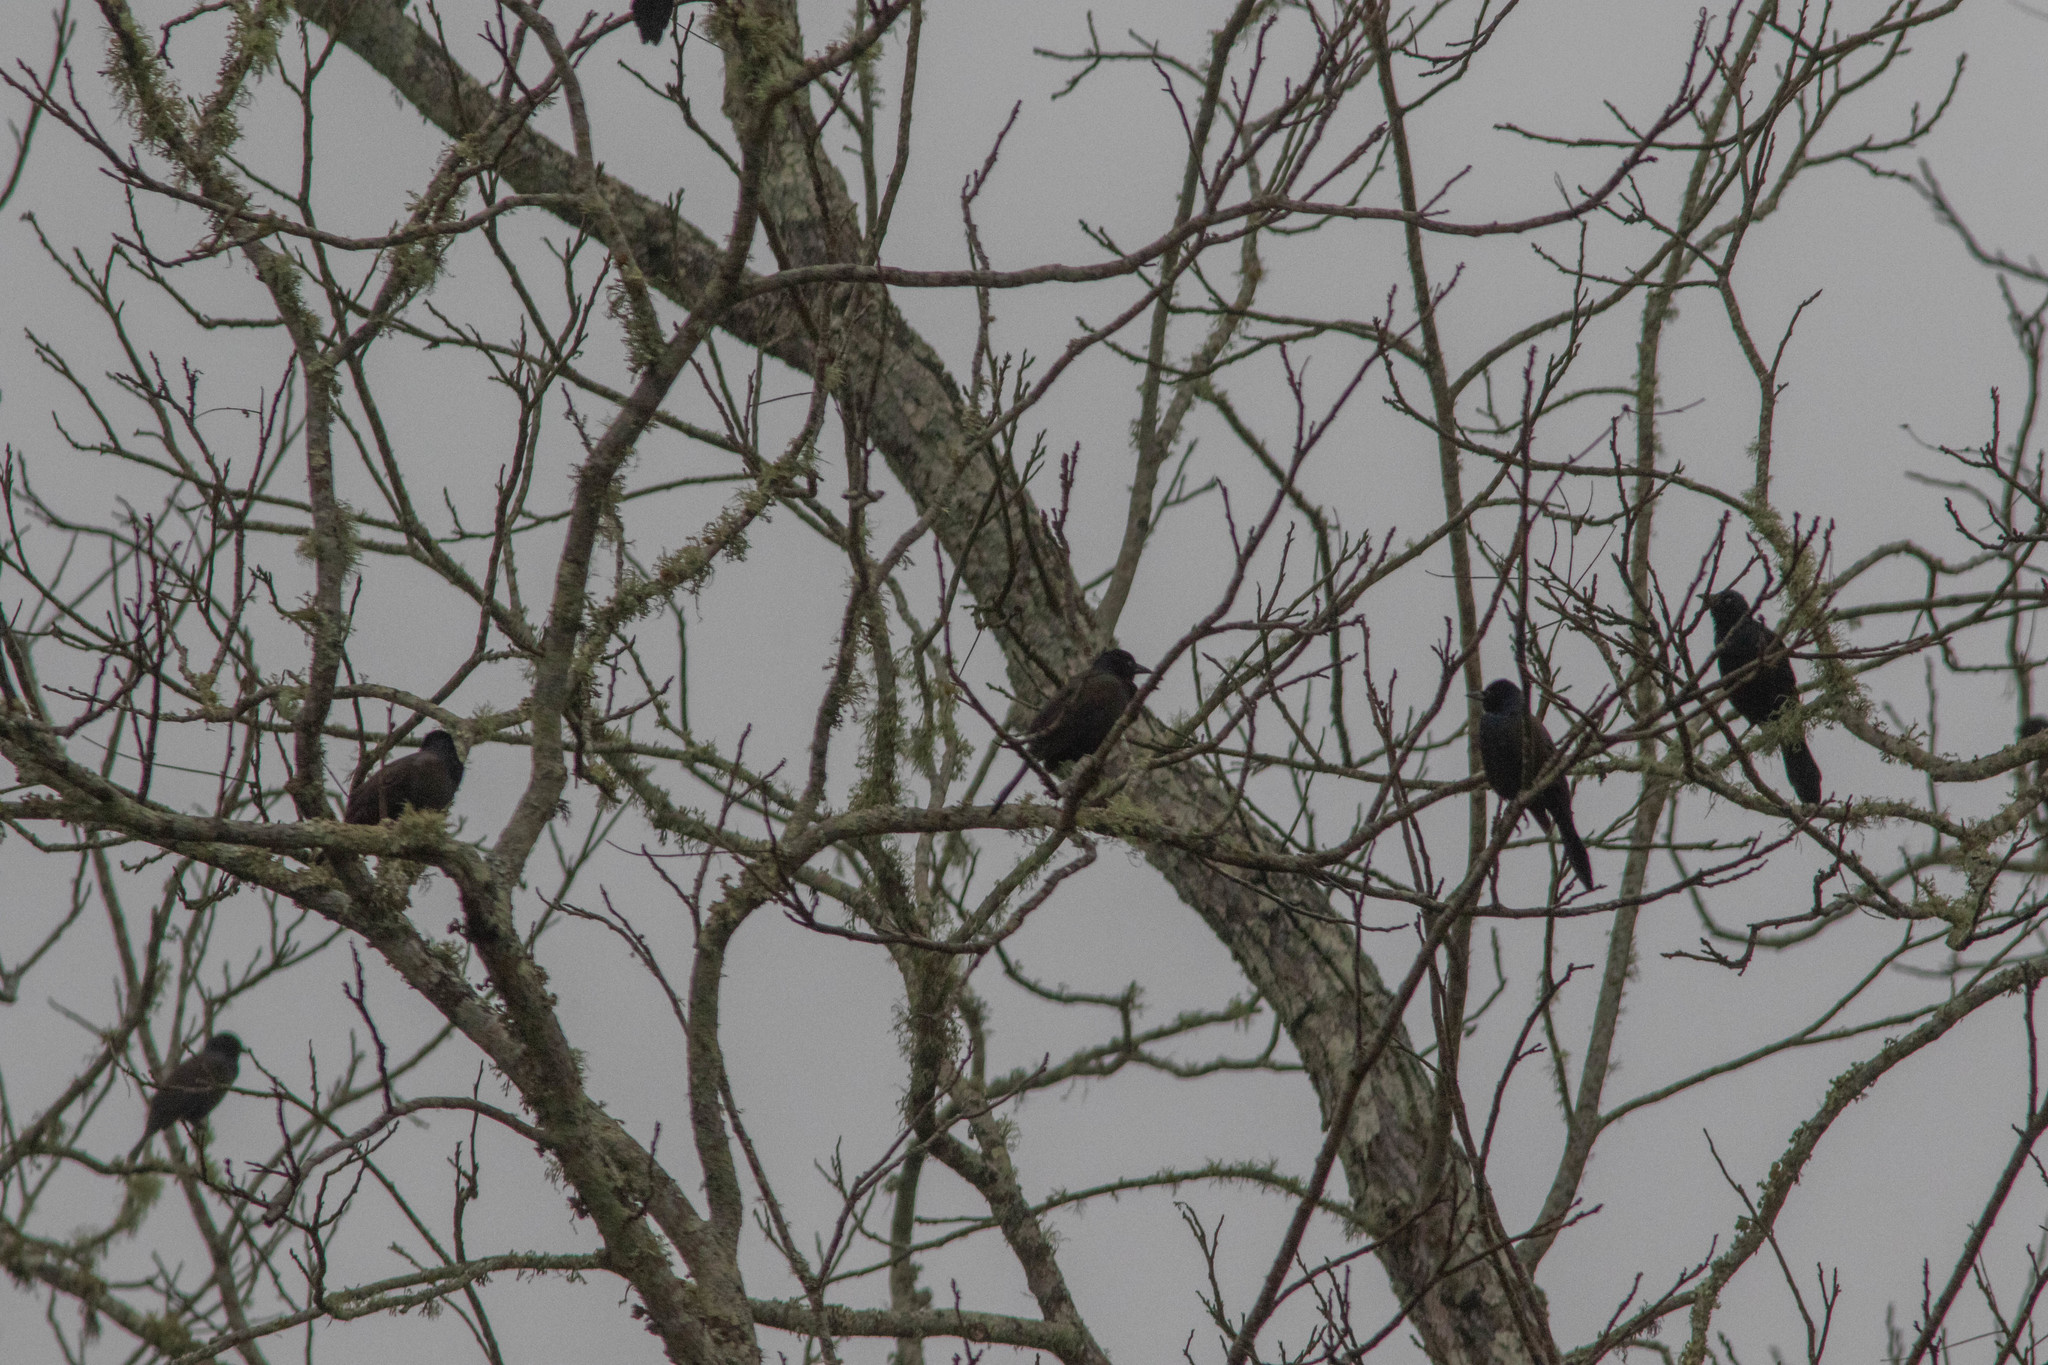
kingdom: Animalia
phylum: Chordata
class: Aves
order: Passeriformes
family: Icteridae
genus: Quiscalus
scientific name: Quiscalus quiscula
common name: Common grackle
